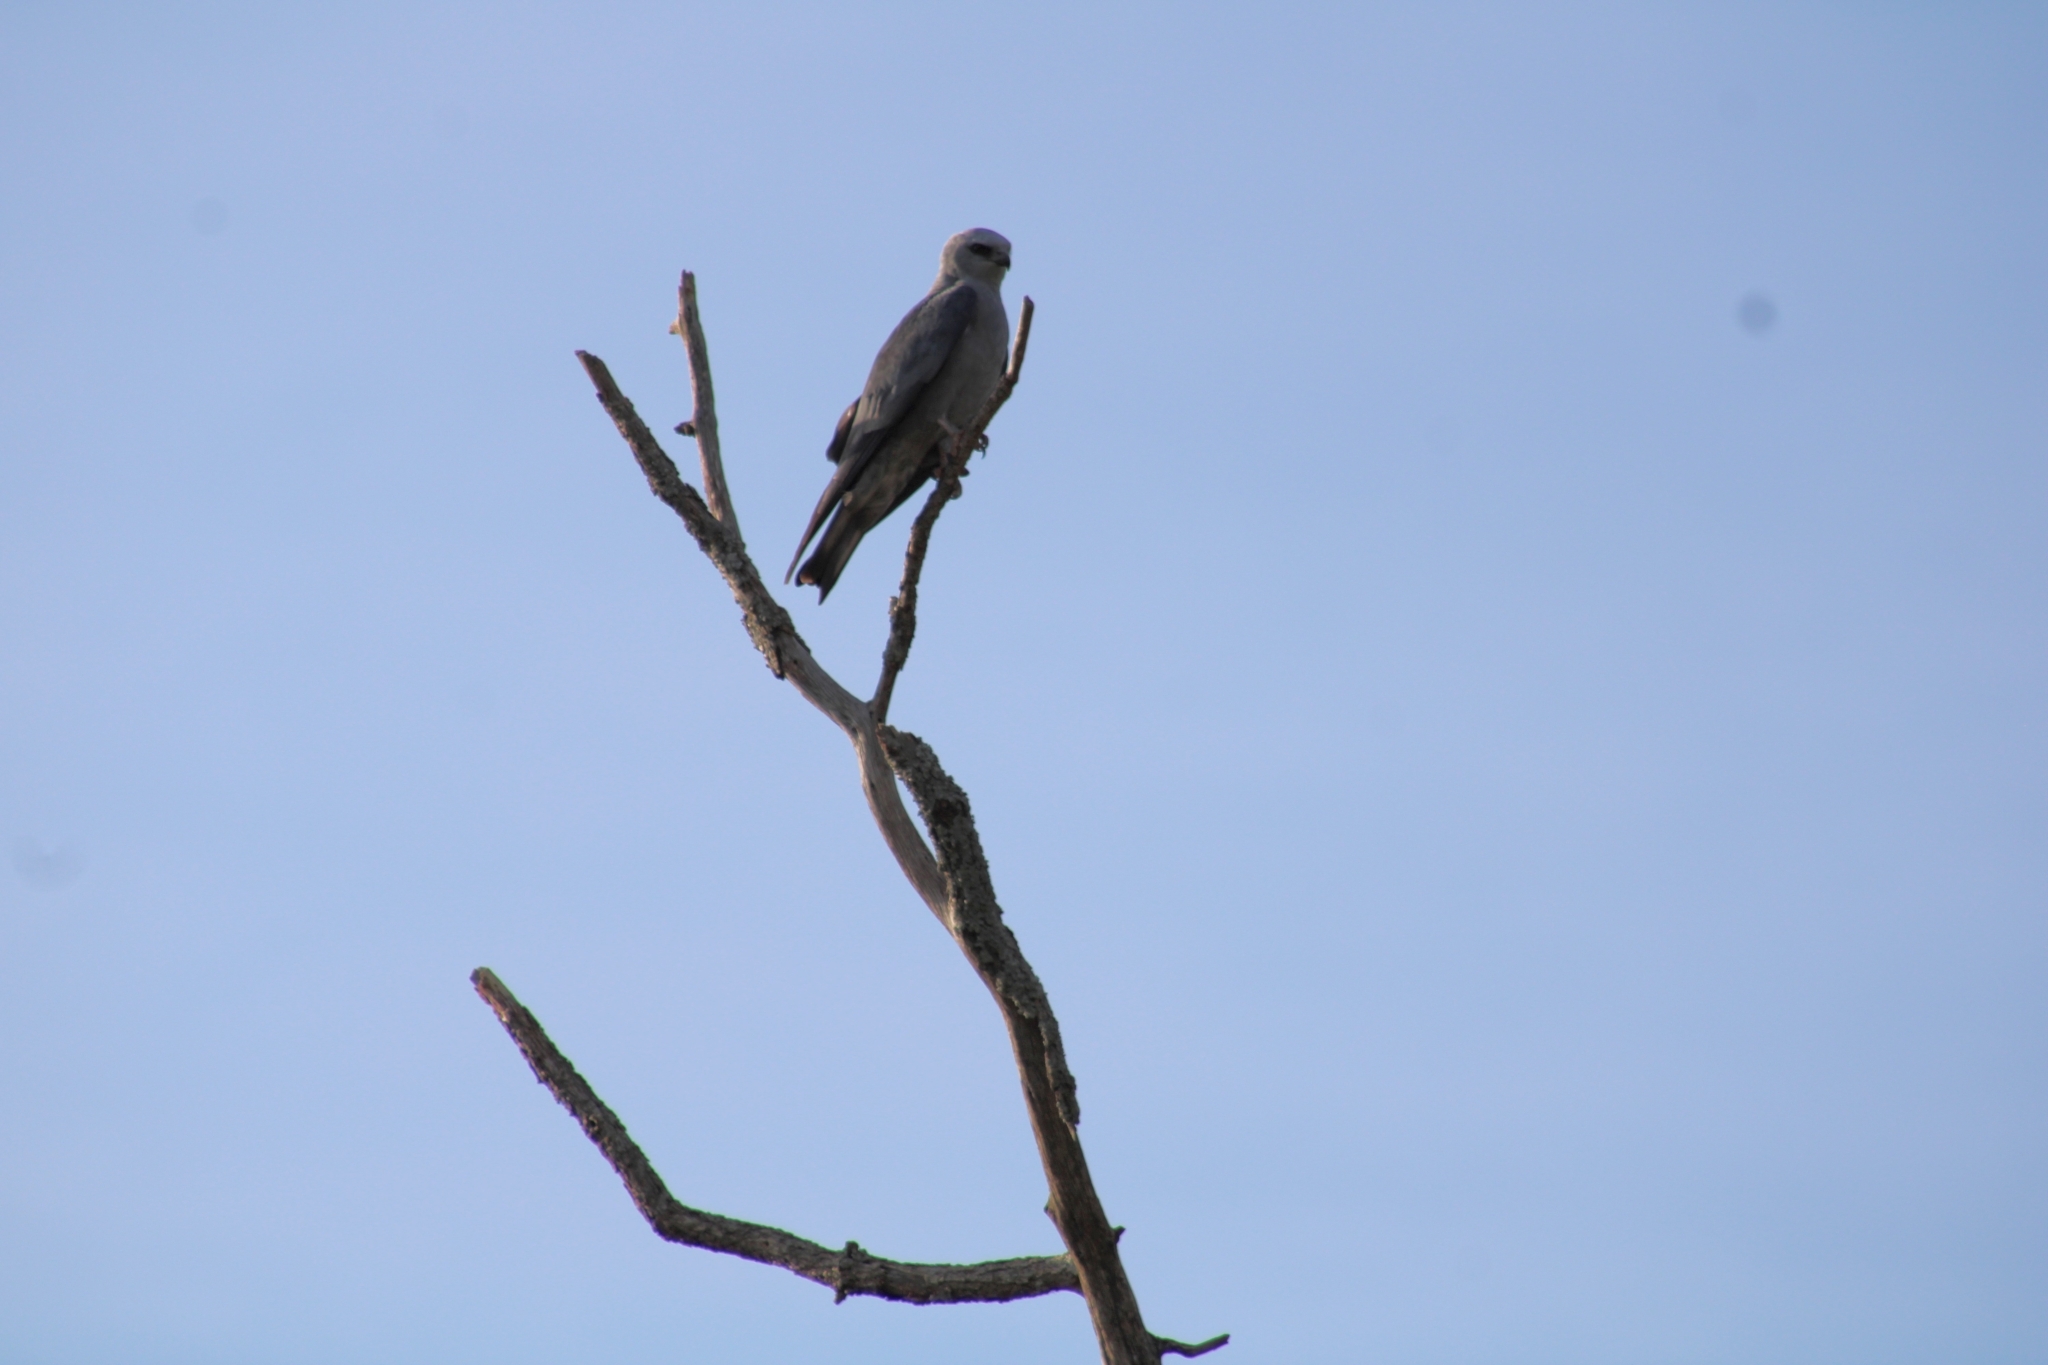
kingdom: Animalia
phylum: Chordata
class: Aves
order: Accipitriformes
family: Accipitridae
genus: Ictinia
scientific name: Ictinia mississippiensis
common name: Mississippi kite
